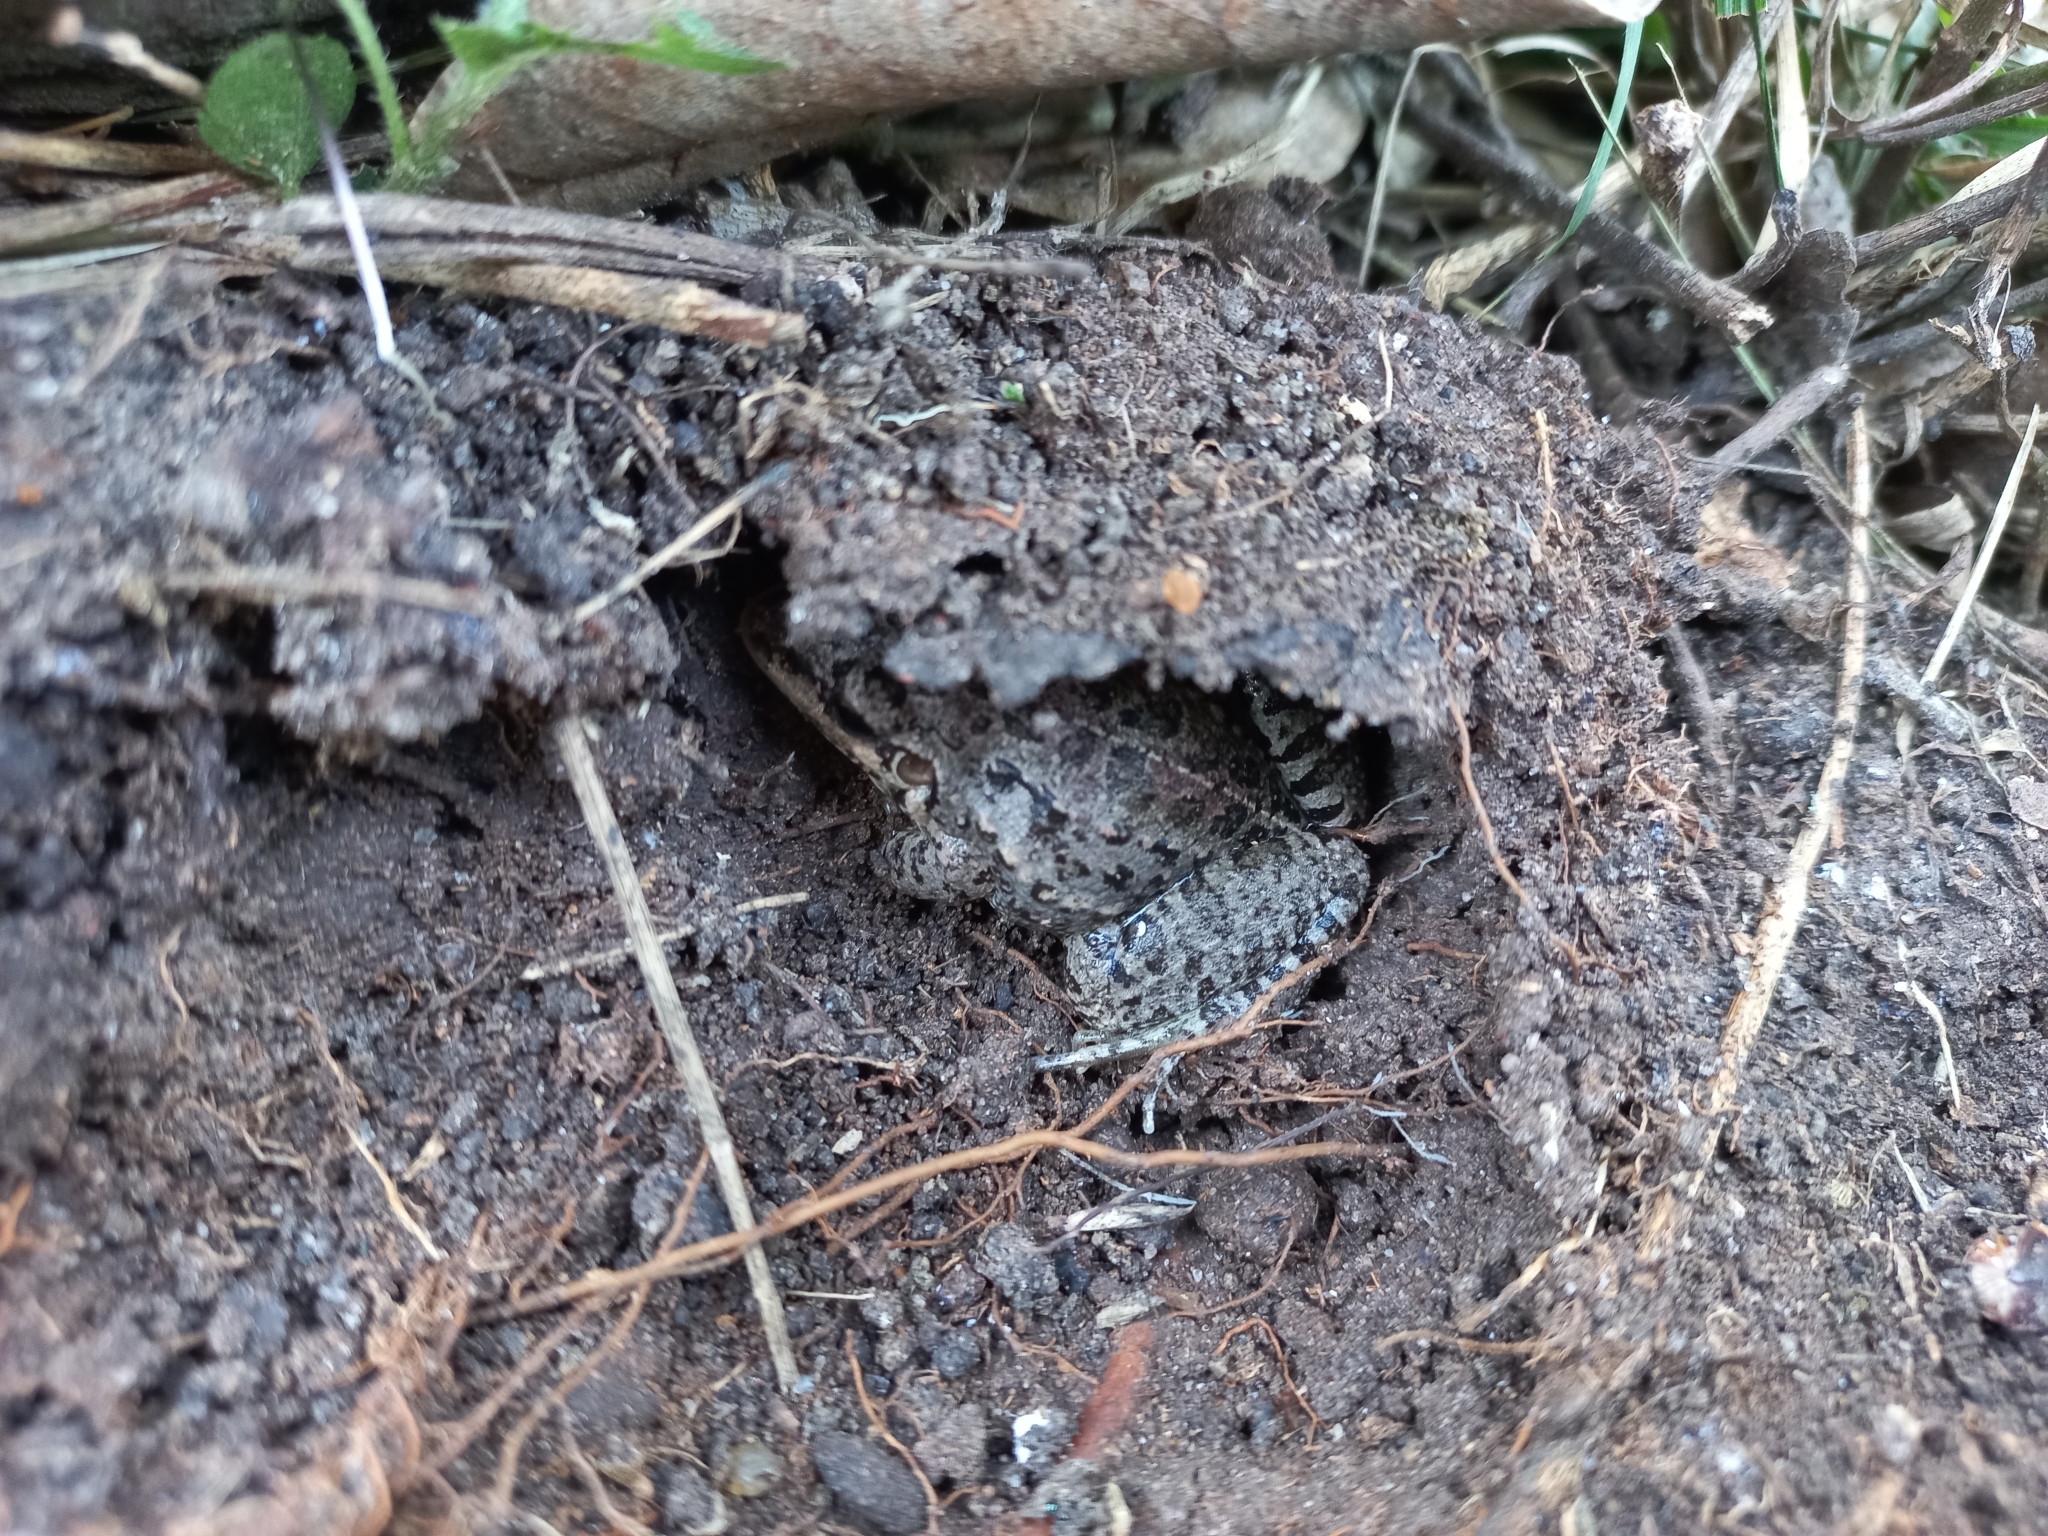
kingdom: Animalia
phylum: Chordata
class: Amphibia
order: Anura
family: Leptodactylidae
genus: Leptodactylus
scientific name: Leptodactylus latinasus
